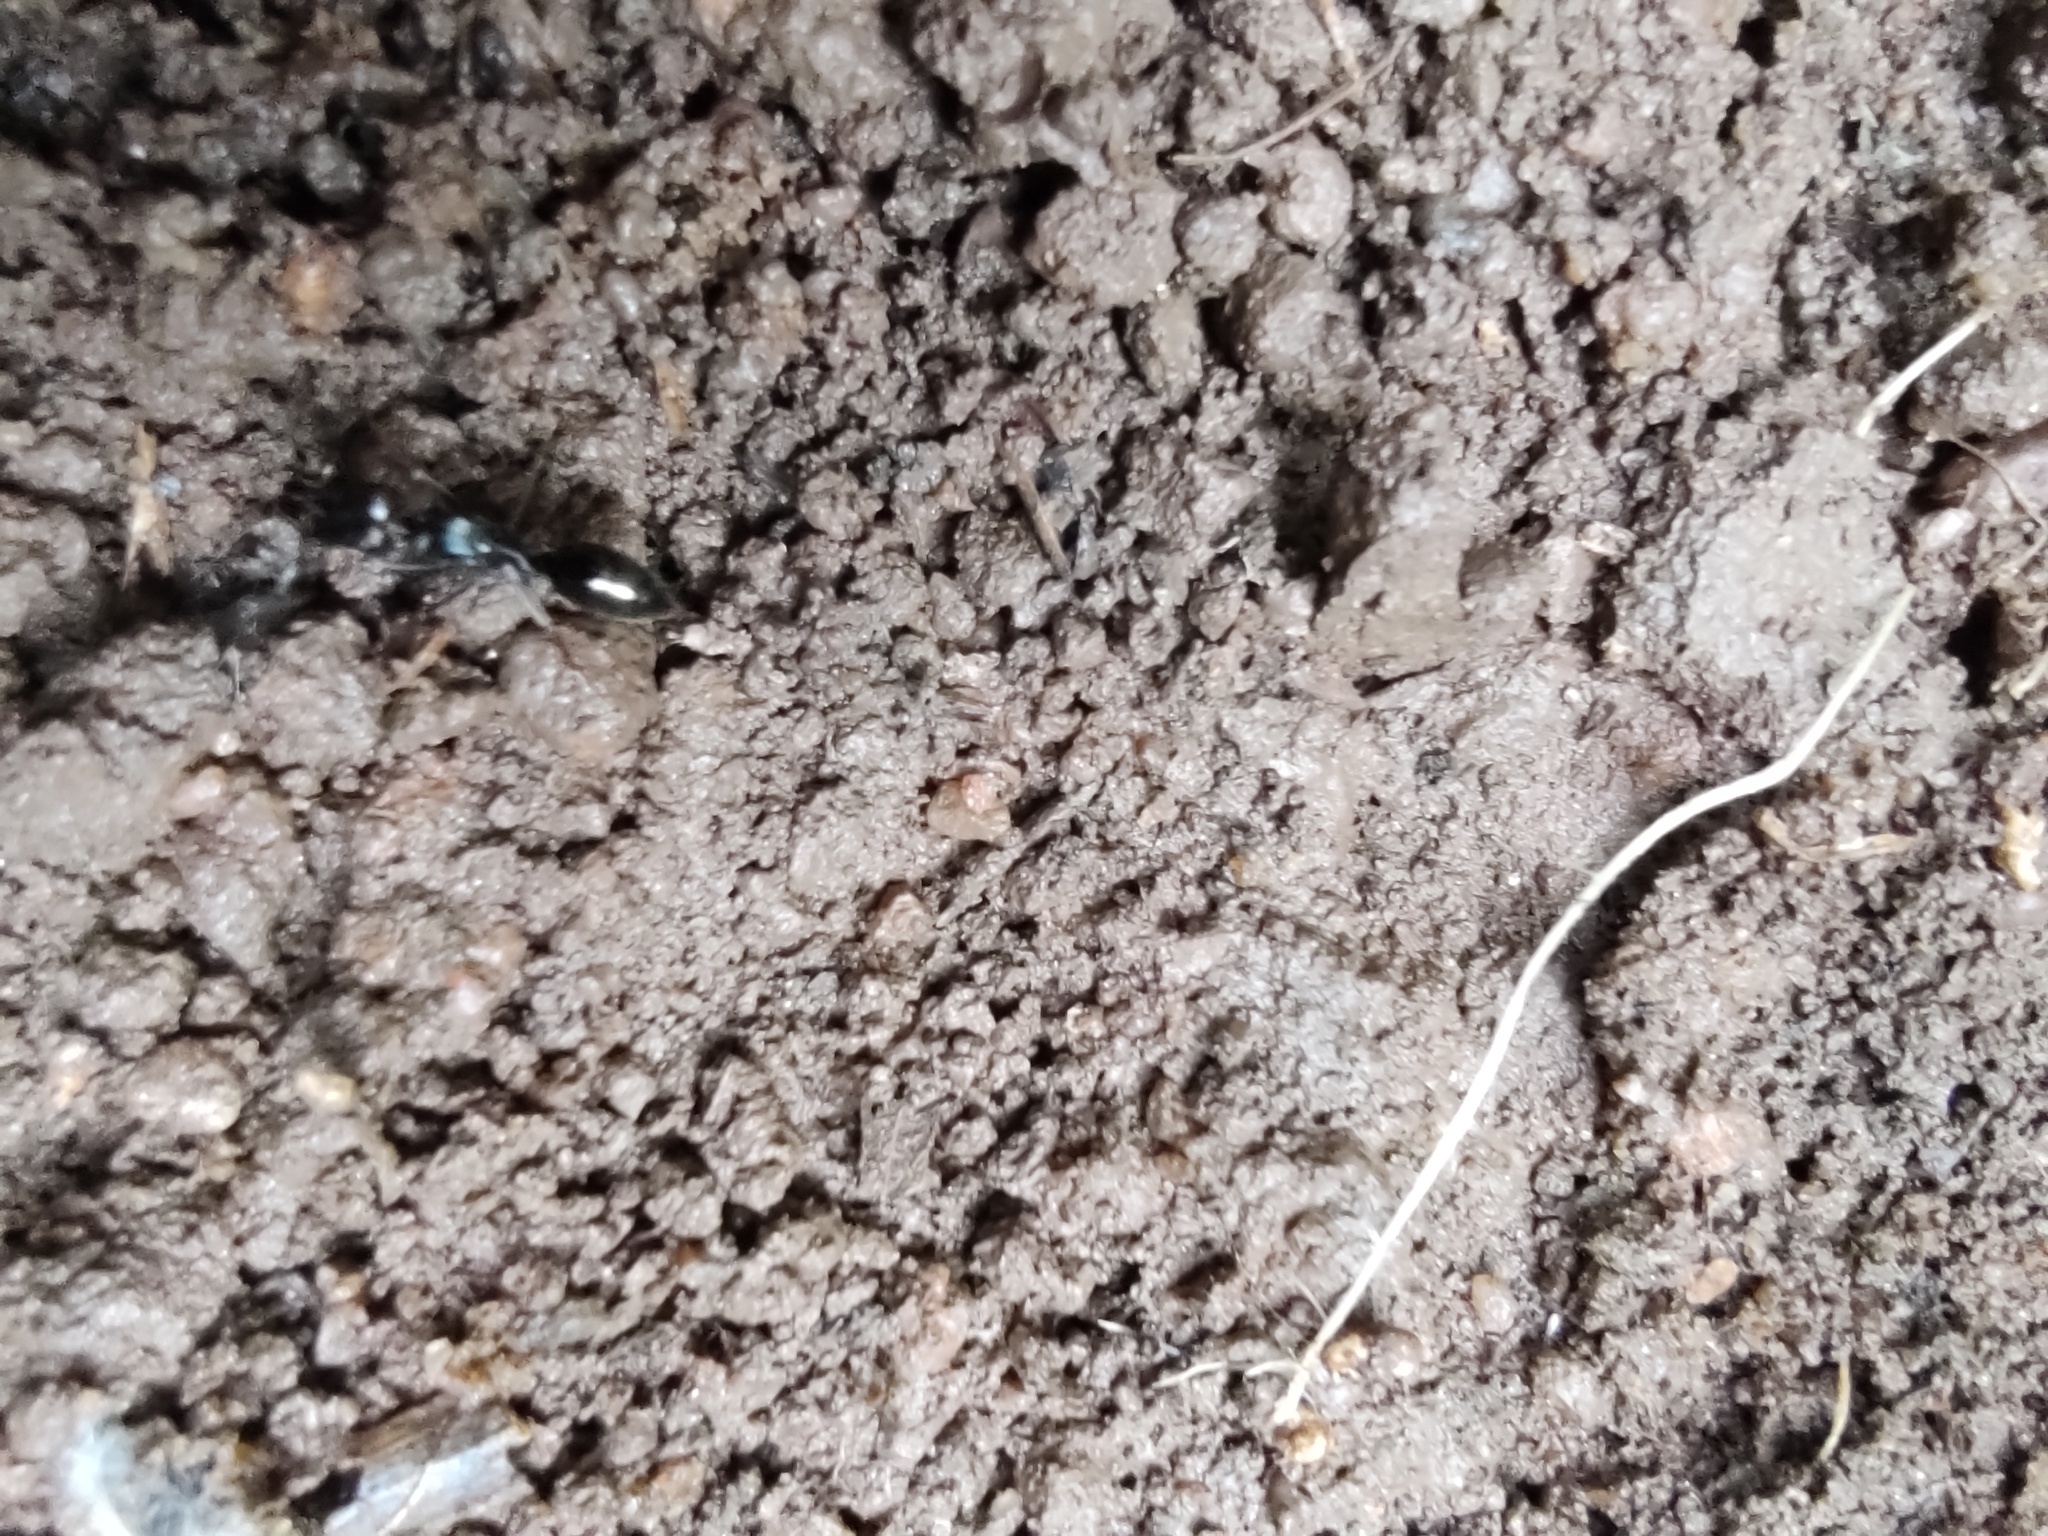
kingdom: Animalia
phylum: Arthropoda
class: Insecta
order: Hymenoptera
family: Formicidae
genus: Odontomachus
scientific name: Odontomachus simillimus
